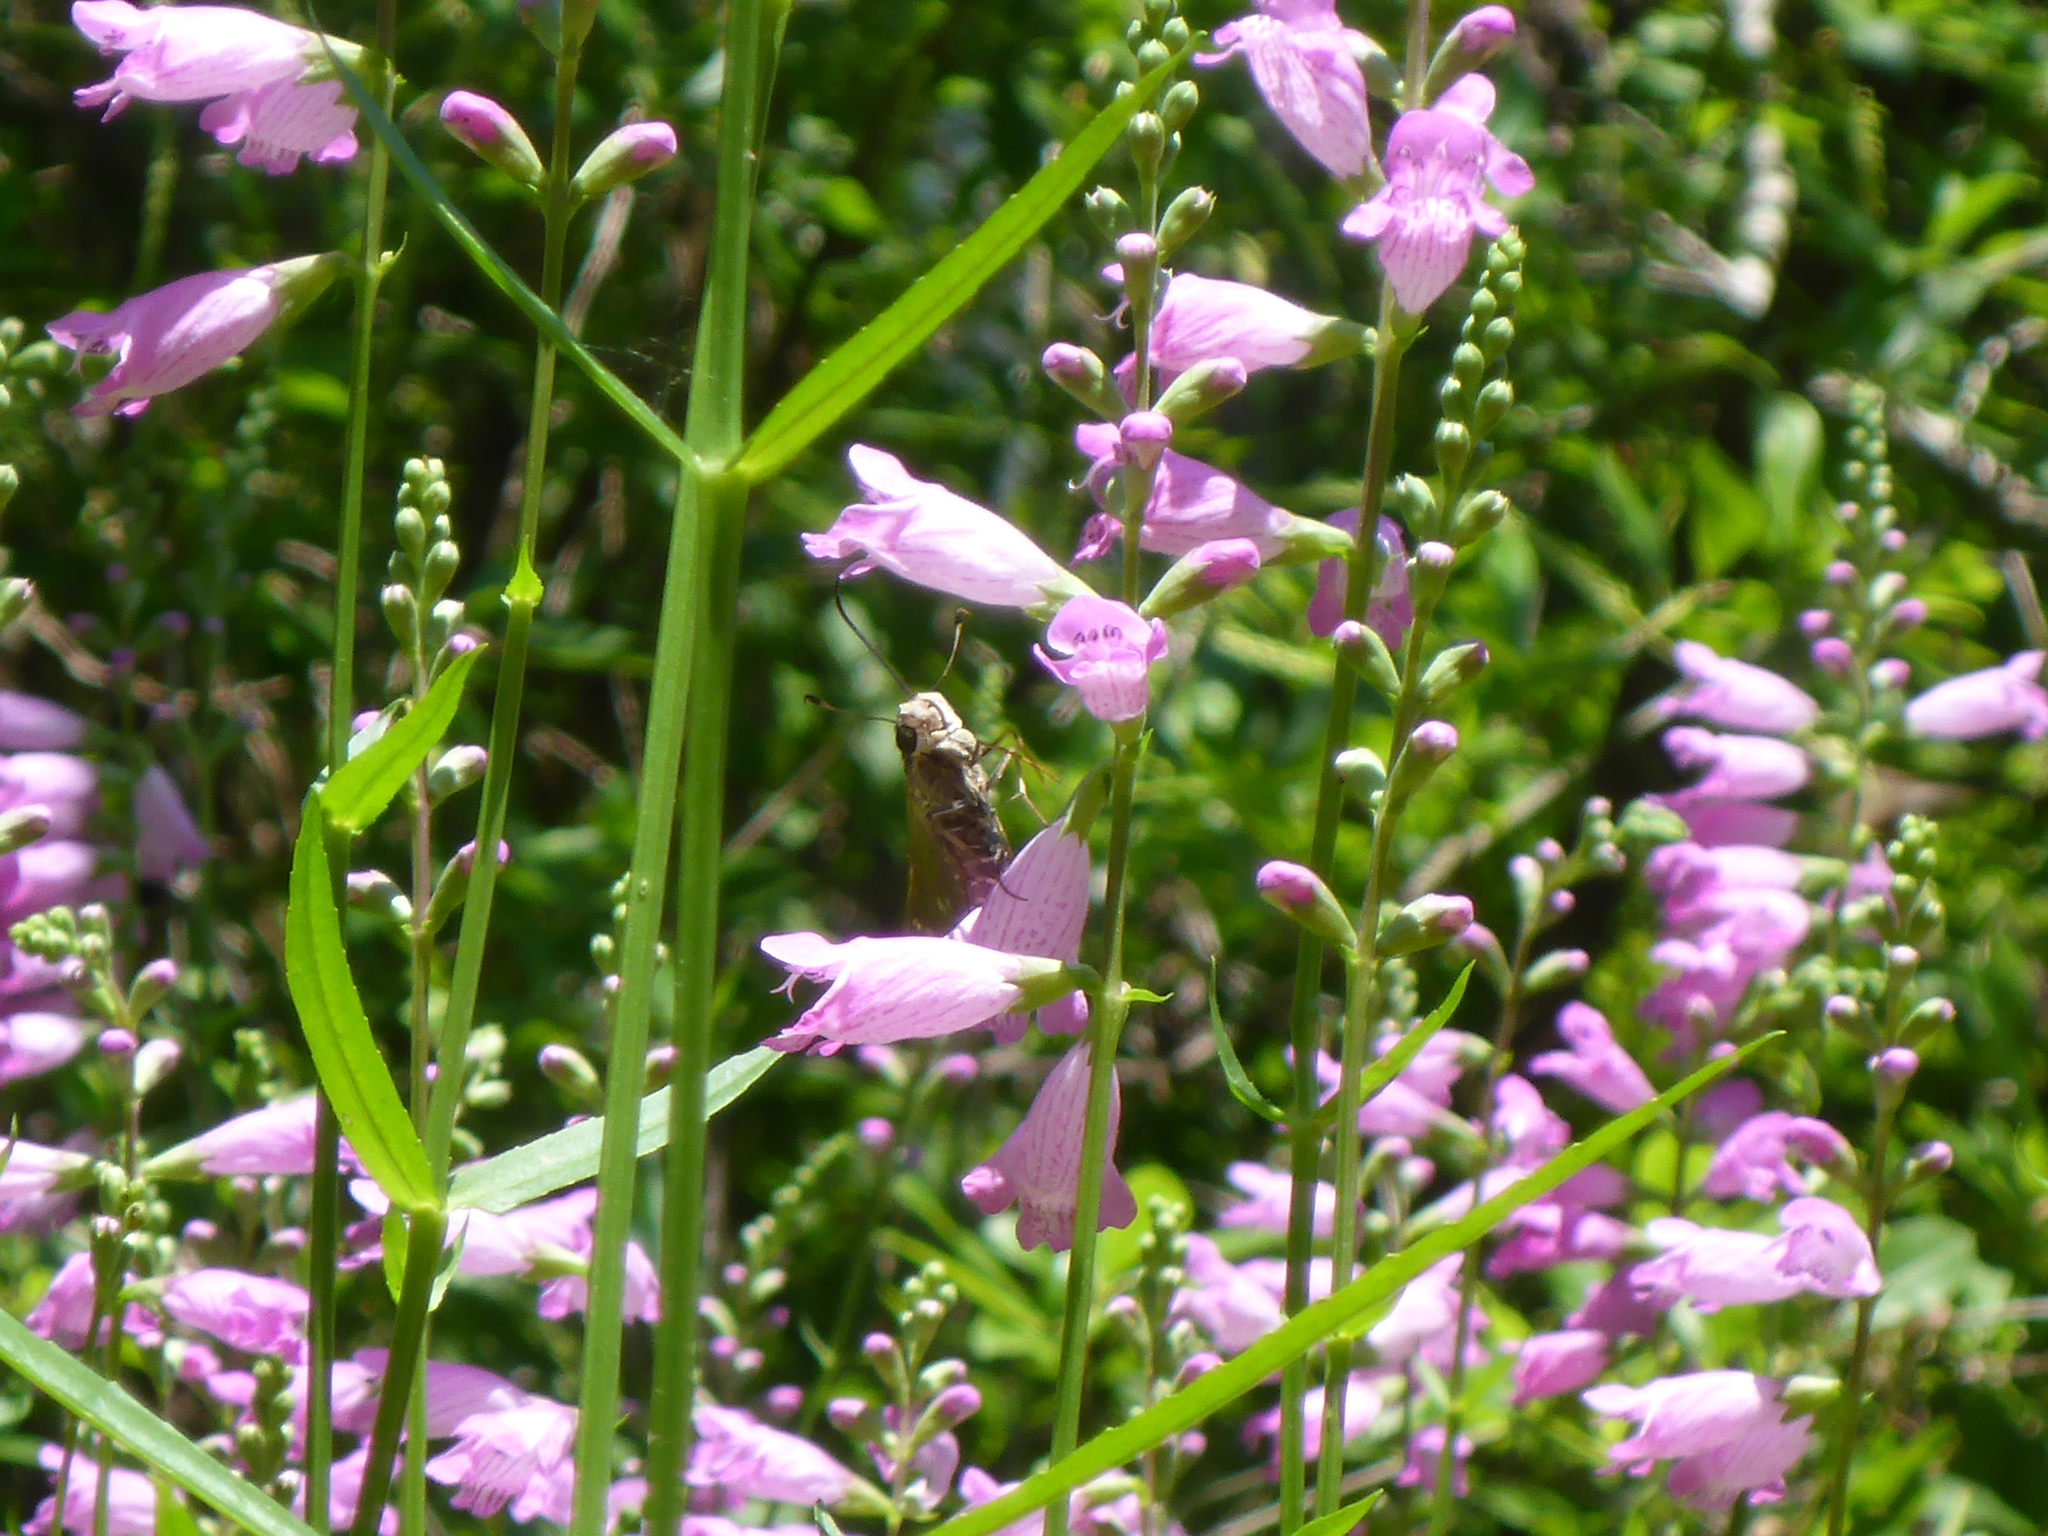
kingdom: Animalia
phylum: Arthropoda
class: Insecta
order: Lepidoptera
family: Hesperiidae
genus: Calpodes
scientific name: Calpodes ethlius
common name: Brazilian skipper
